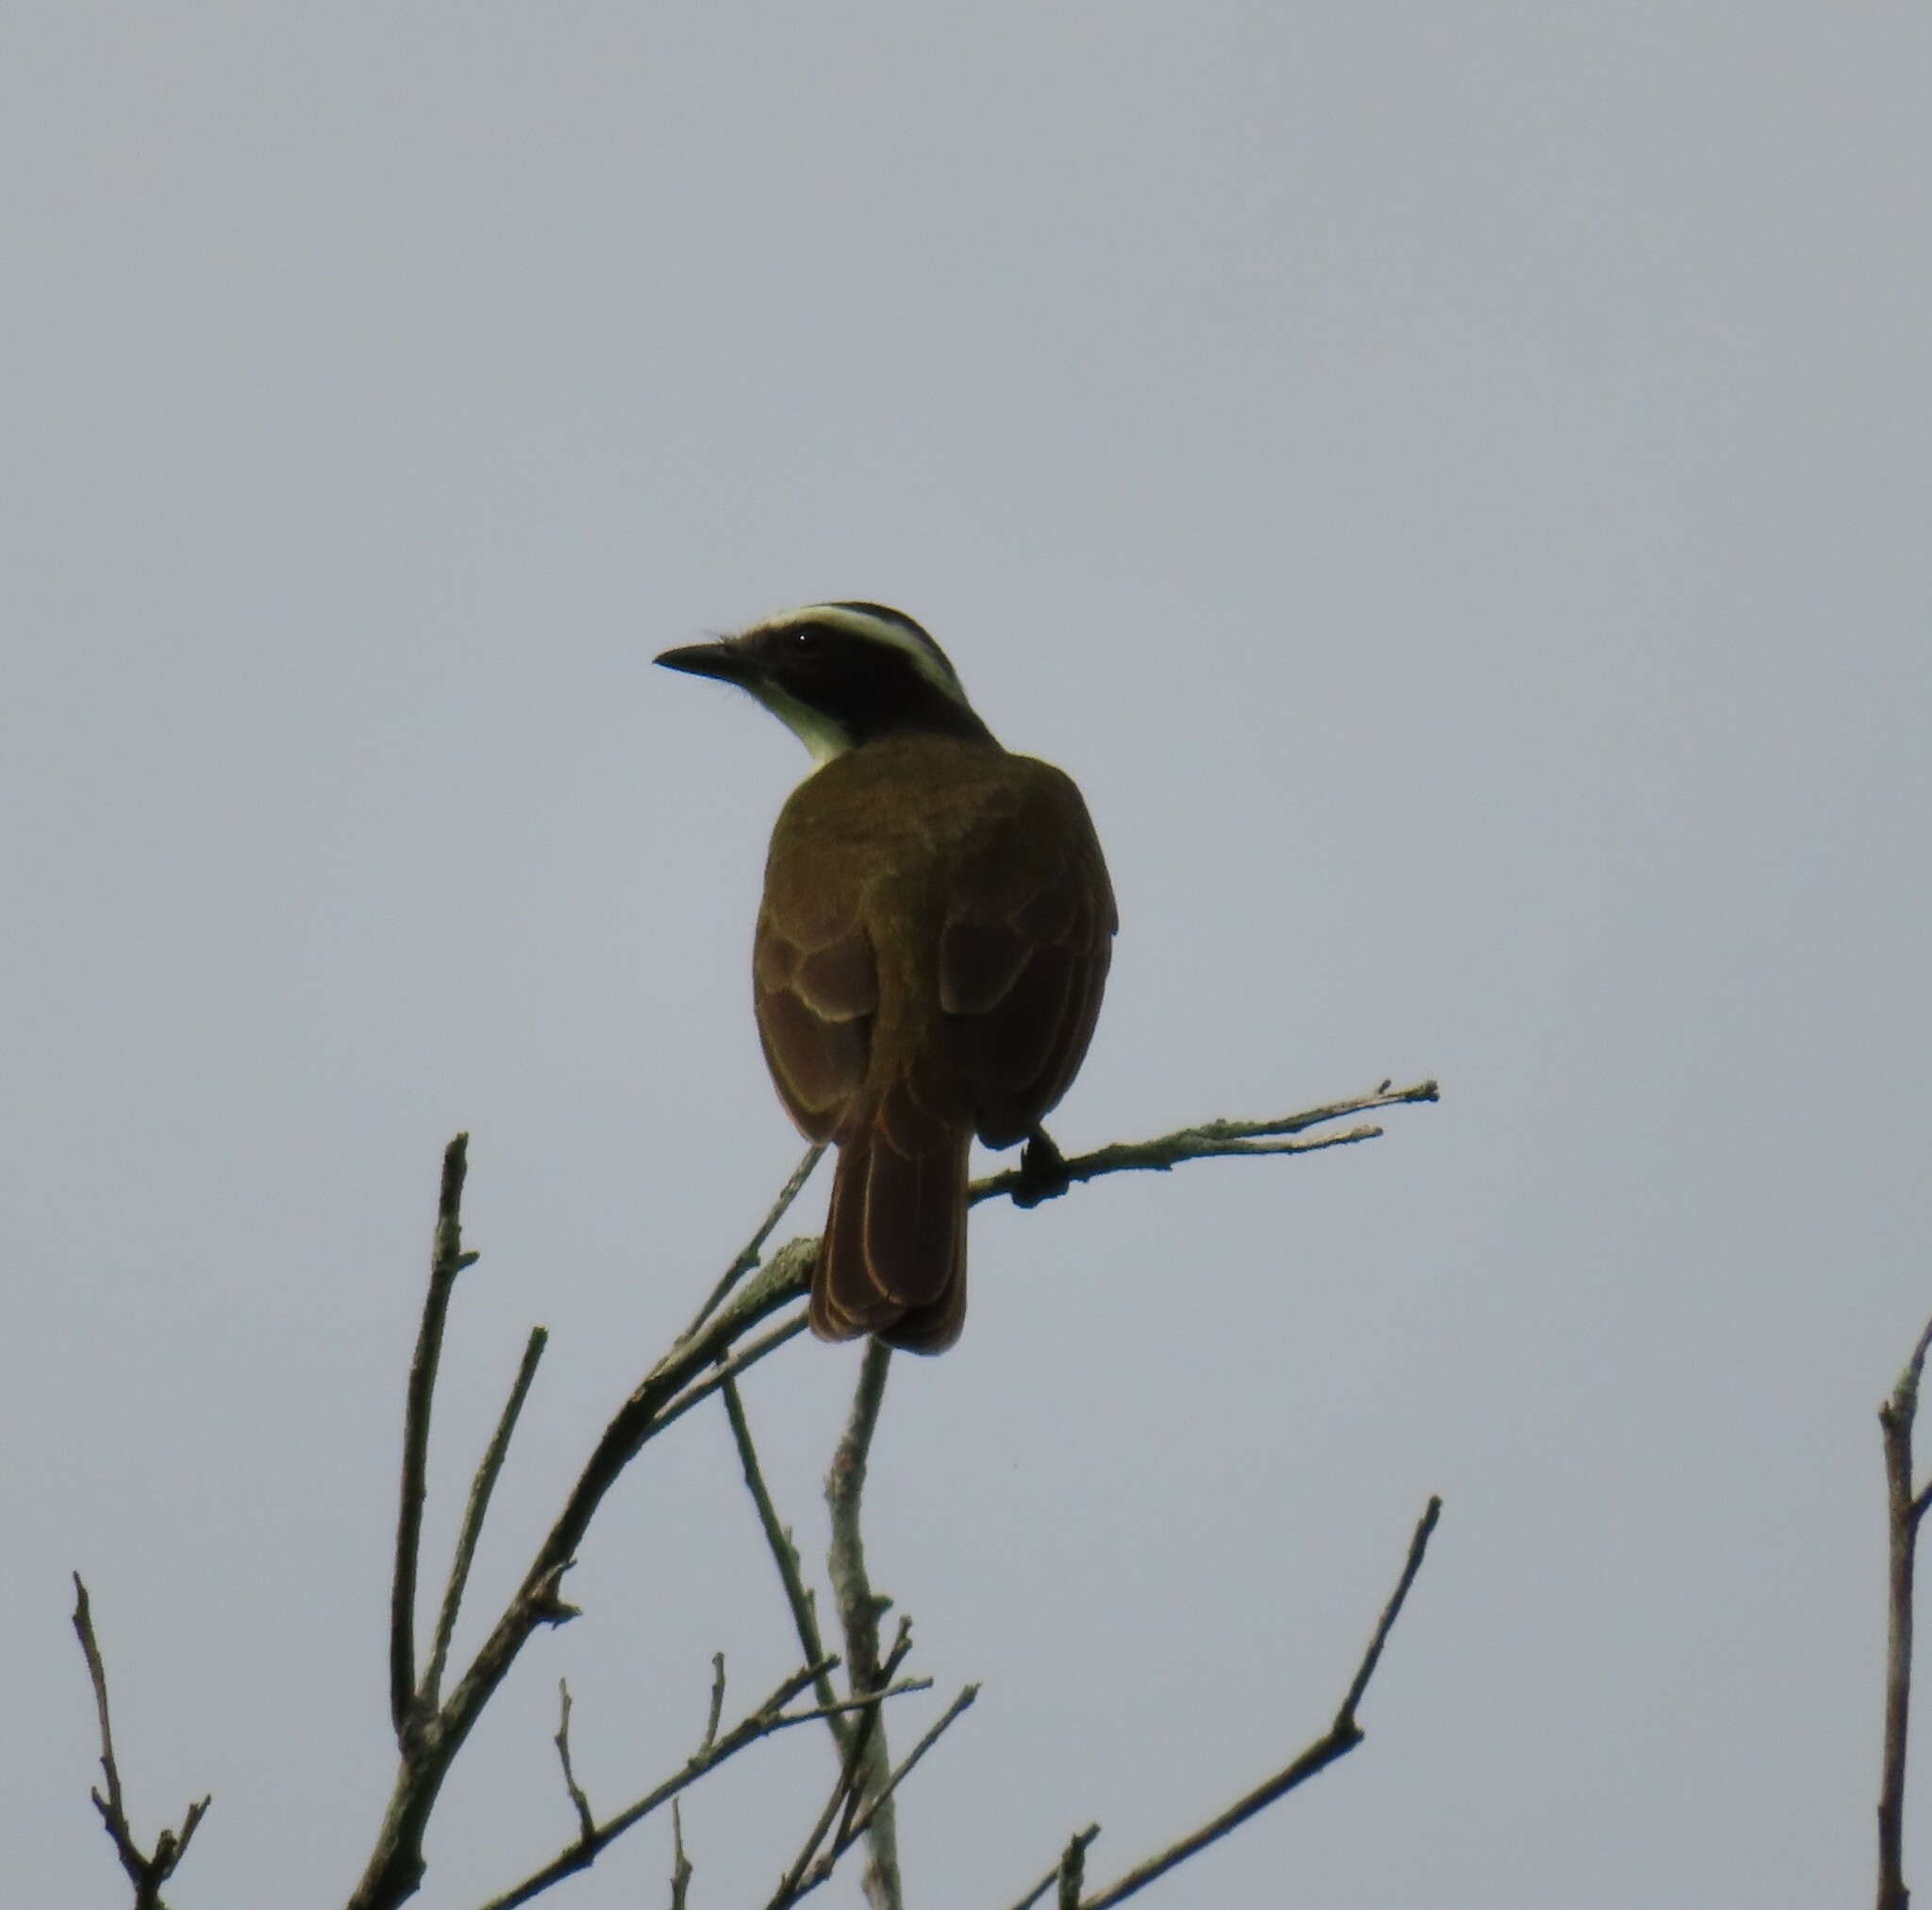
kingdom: Animalia
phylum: Chordata
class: Aves
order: Passeriformes
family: Tyrannidae
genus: Pitangus
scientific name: Pitangus sulphuratus
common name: Great kiskadee
